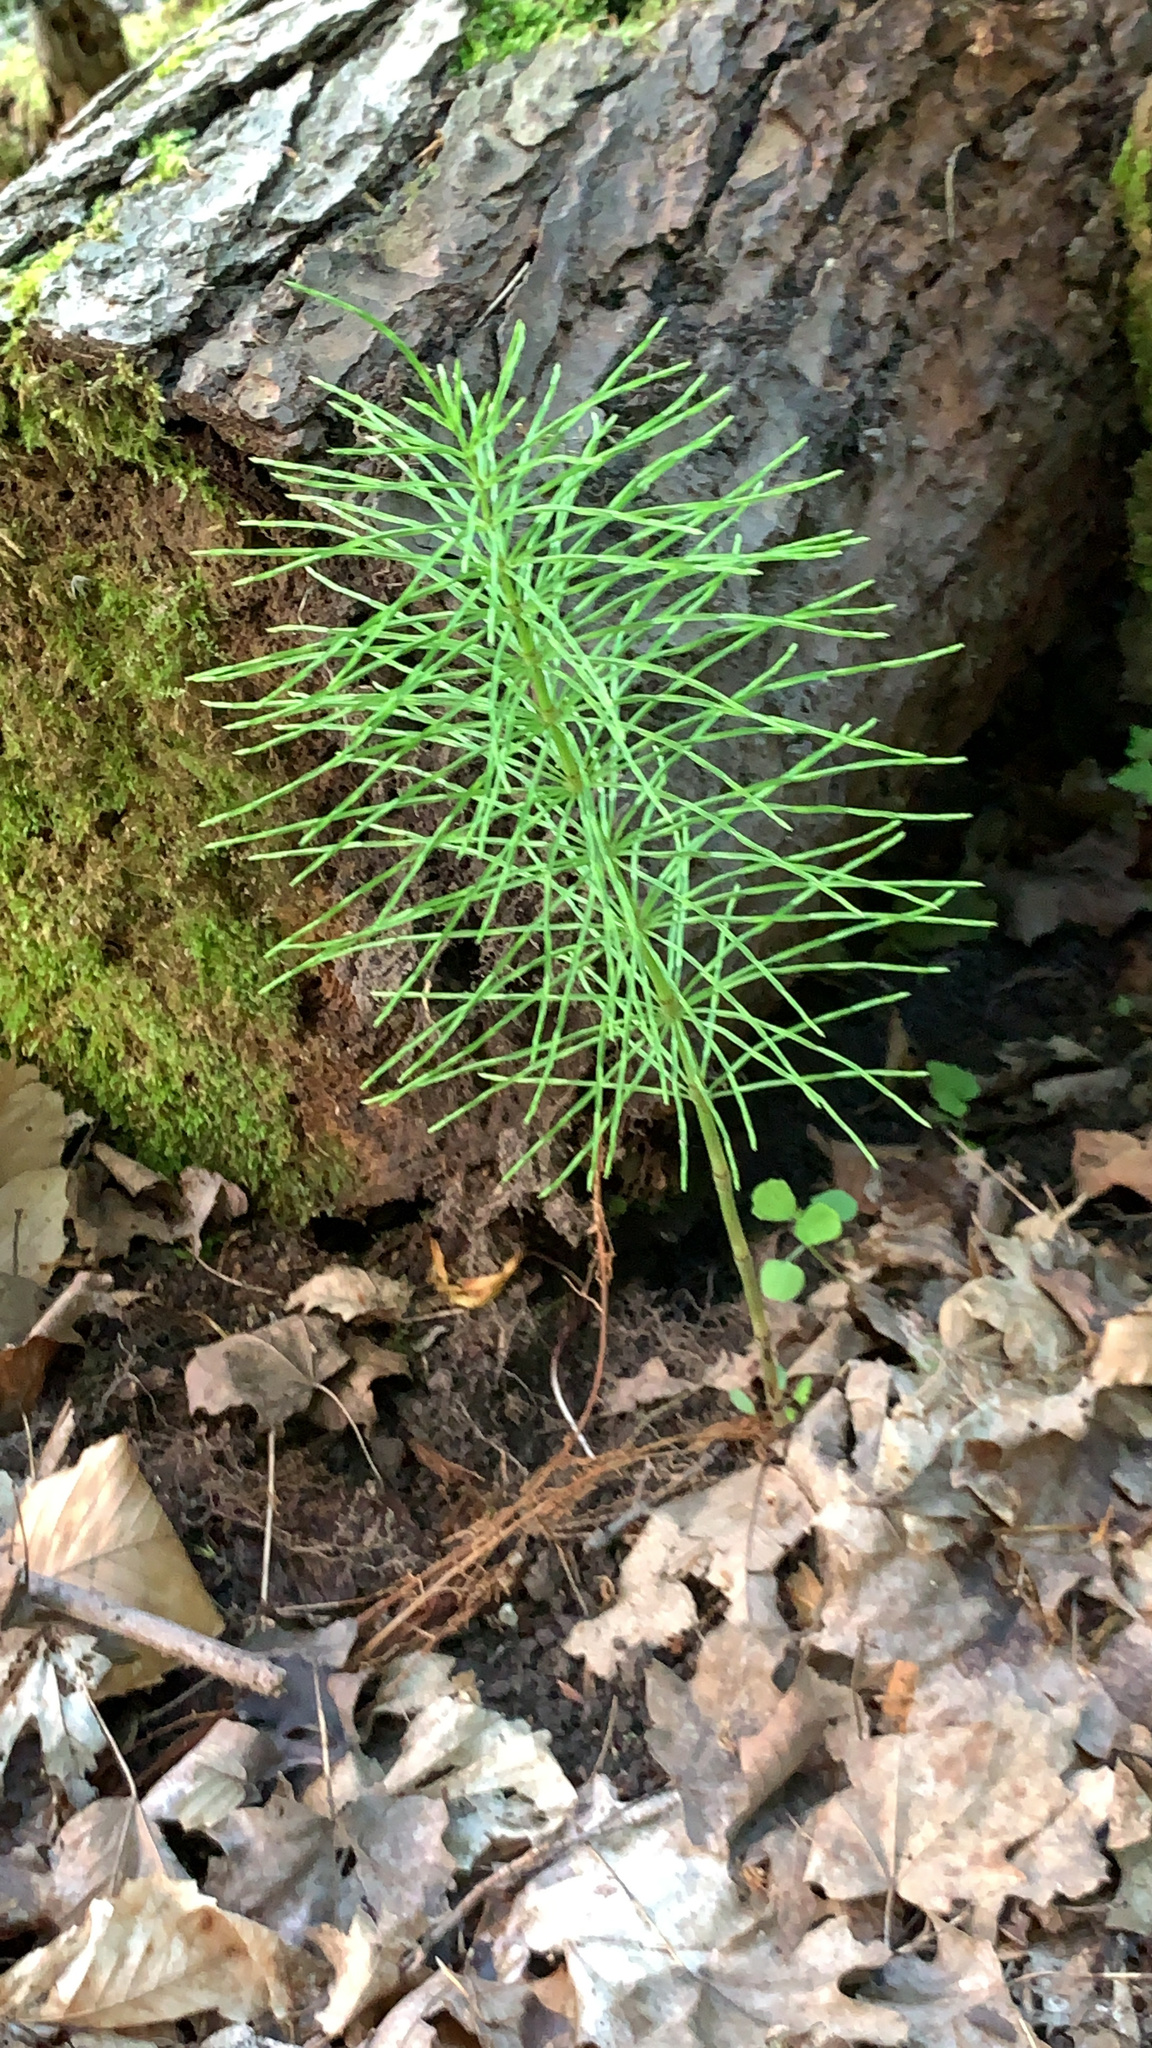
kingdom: Plantae
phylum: Tracheophyta
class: Polypodiopsida
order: Equisetales
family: Equisetaceae
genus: Equisetum
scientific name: Equisetum pratense
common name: Meadow horsetail
